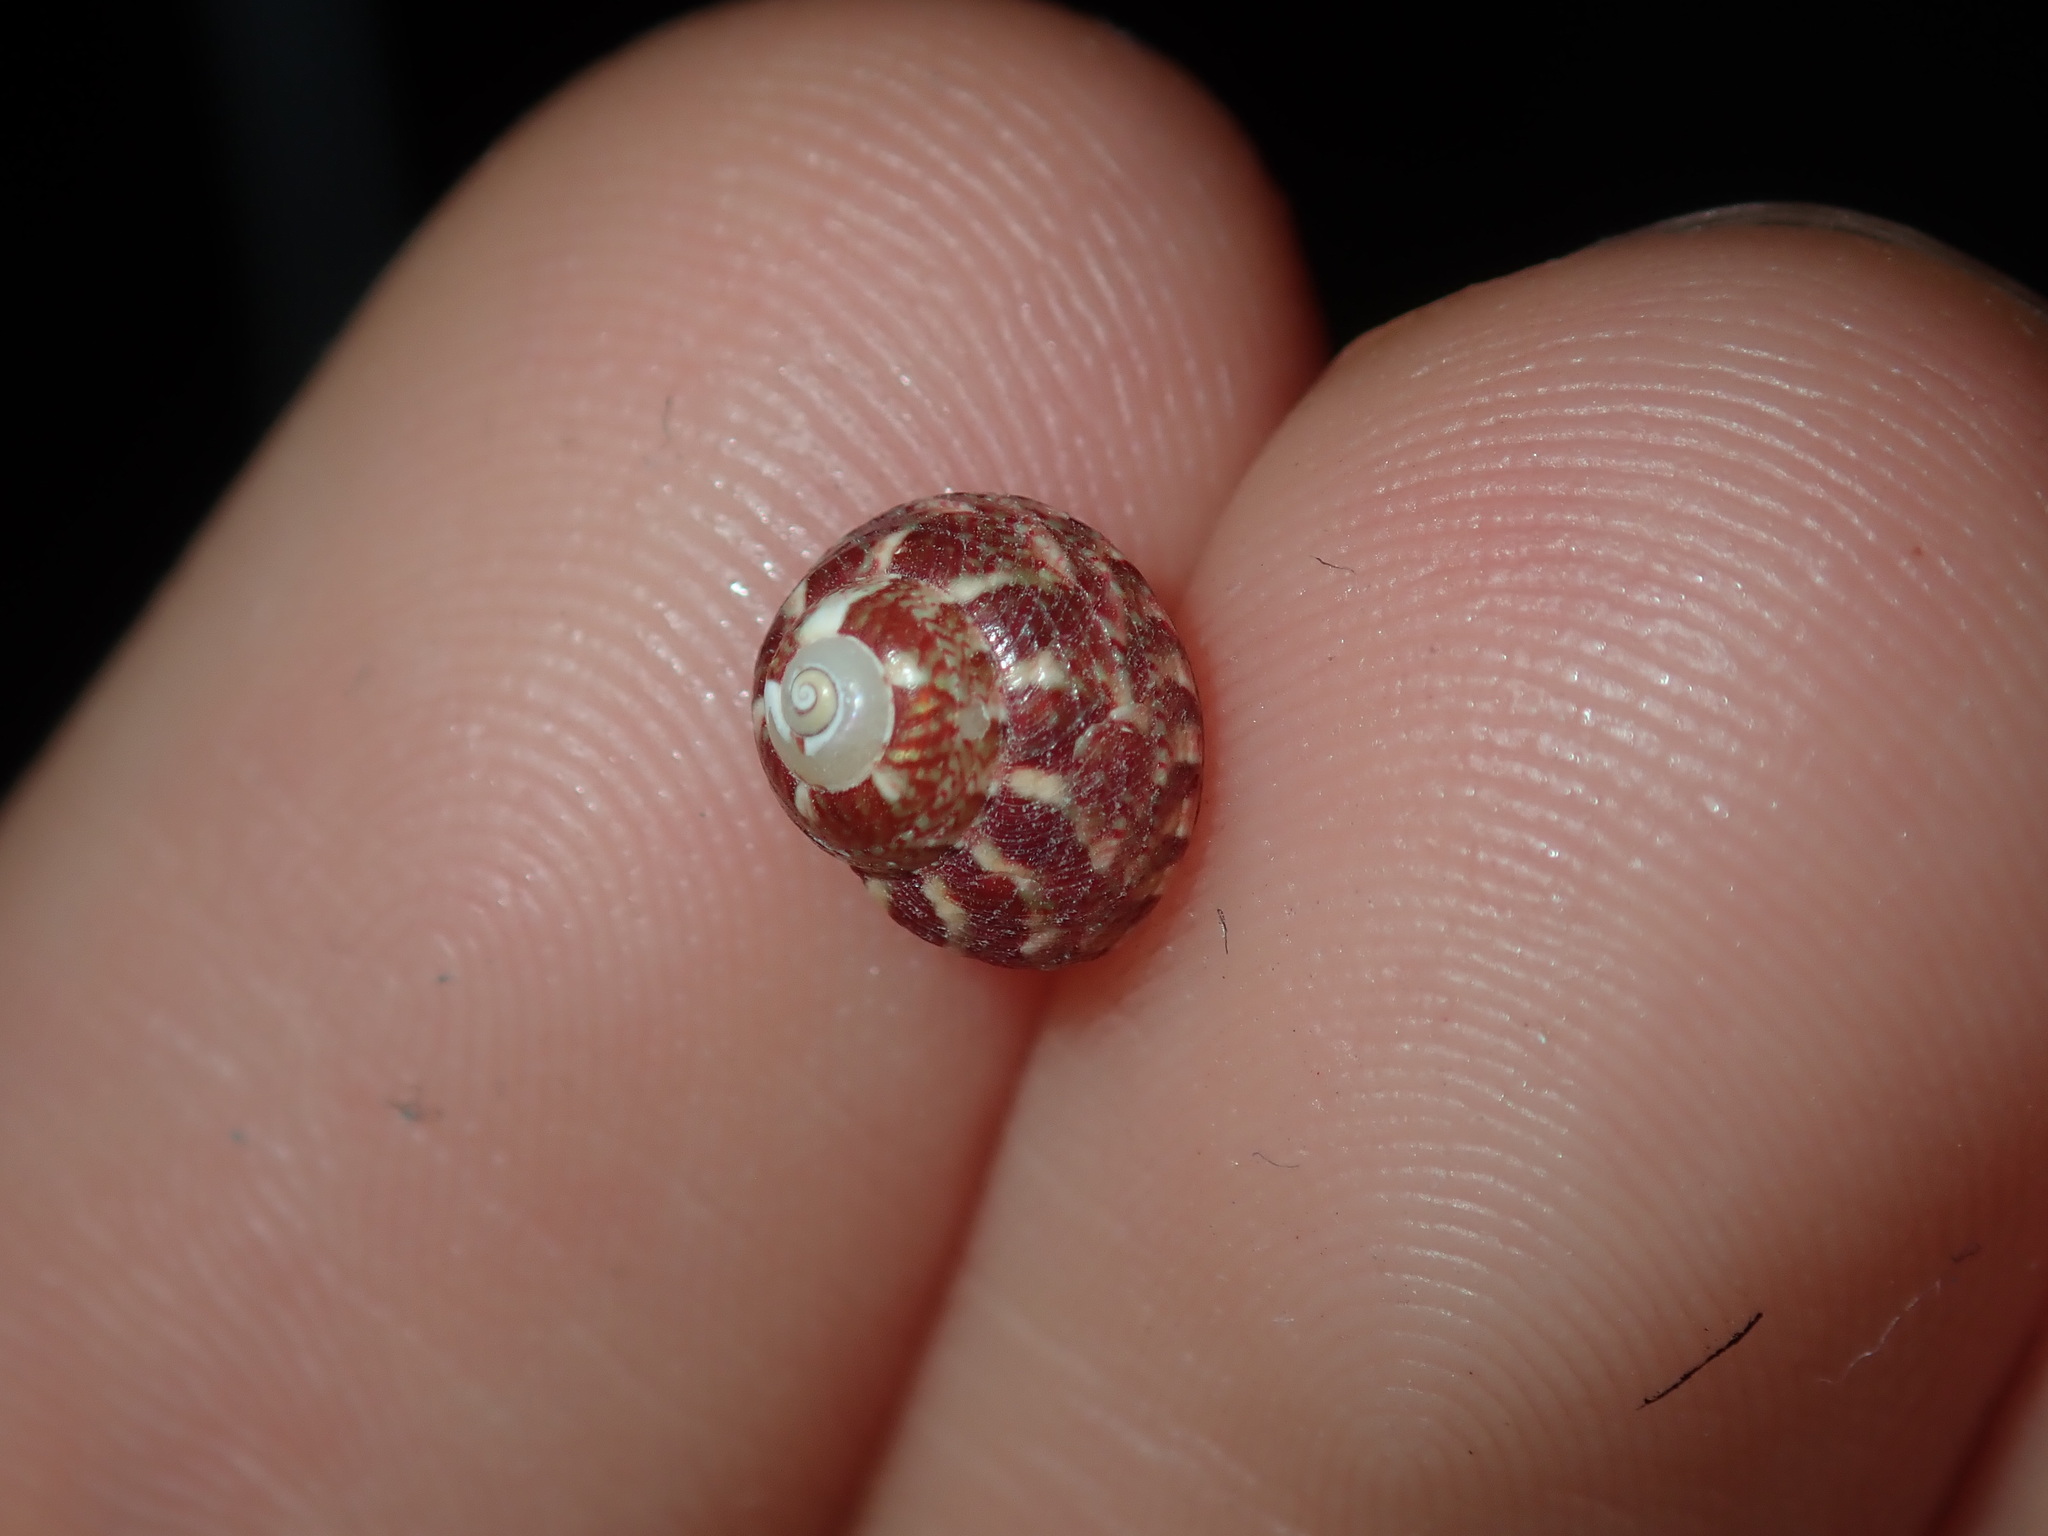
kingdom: Animalia
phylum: Mollusca
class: Gastropoda
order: Trochida
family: Trochidae
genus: Cantharidella
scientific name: Cantharidella picturata
